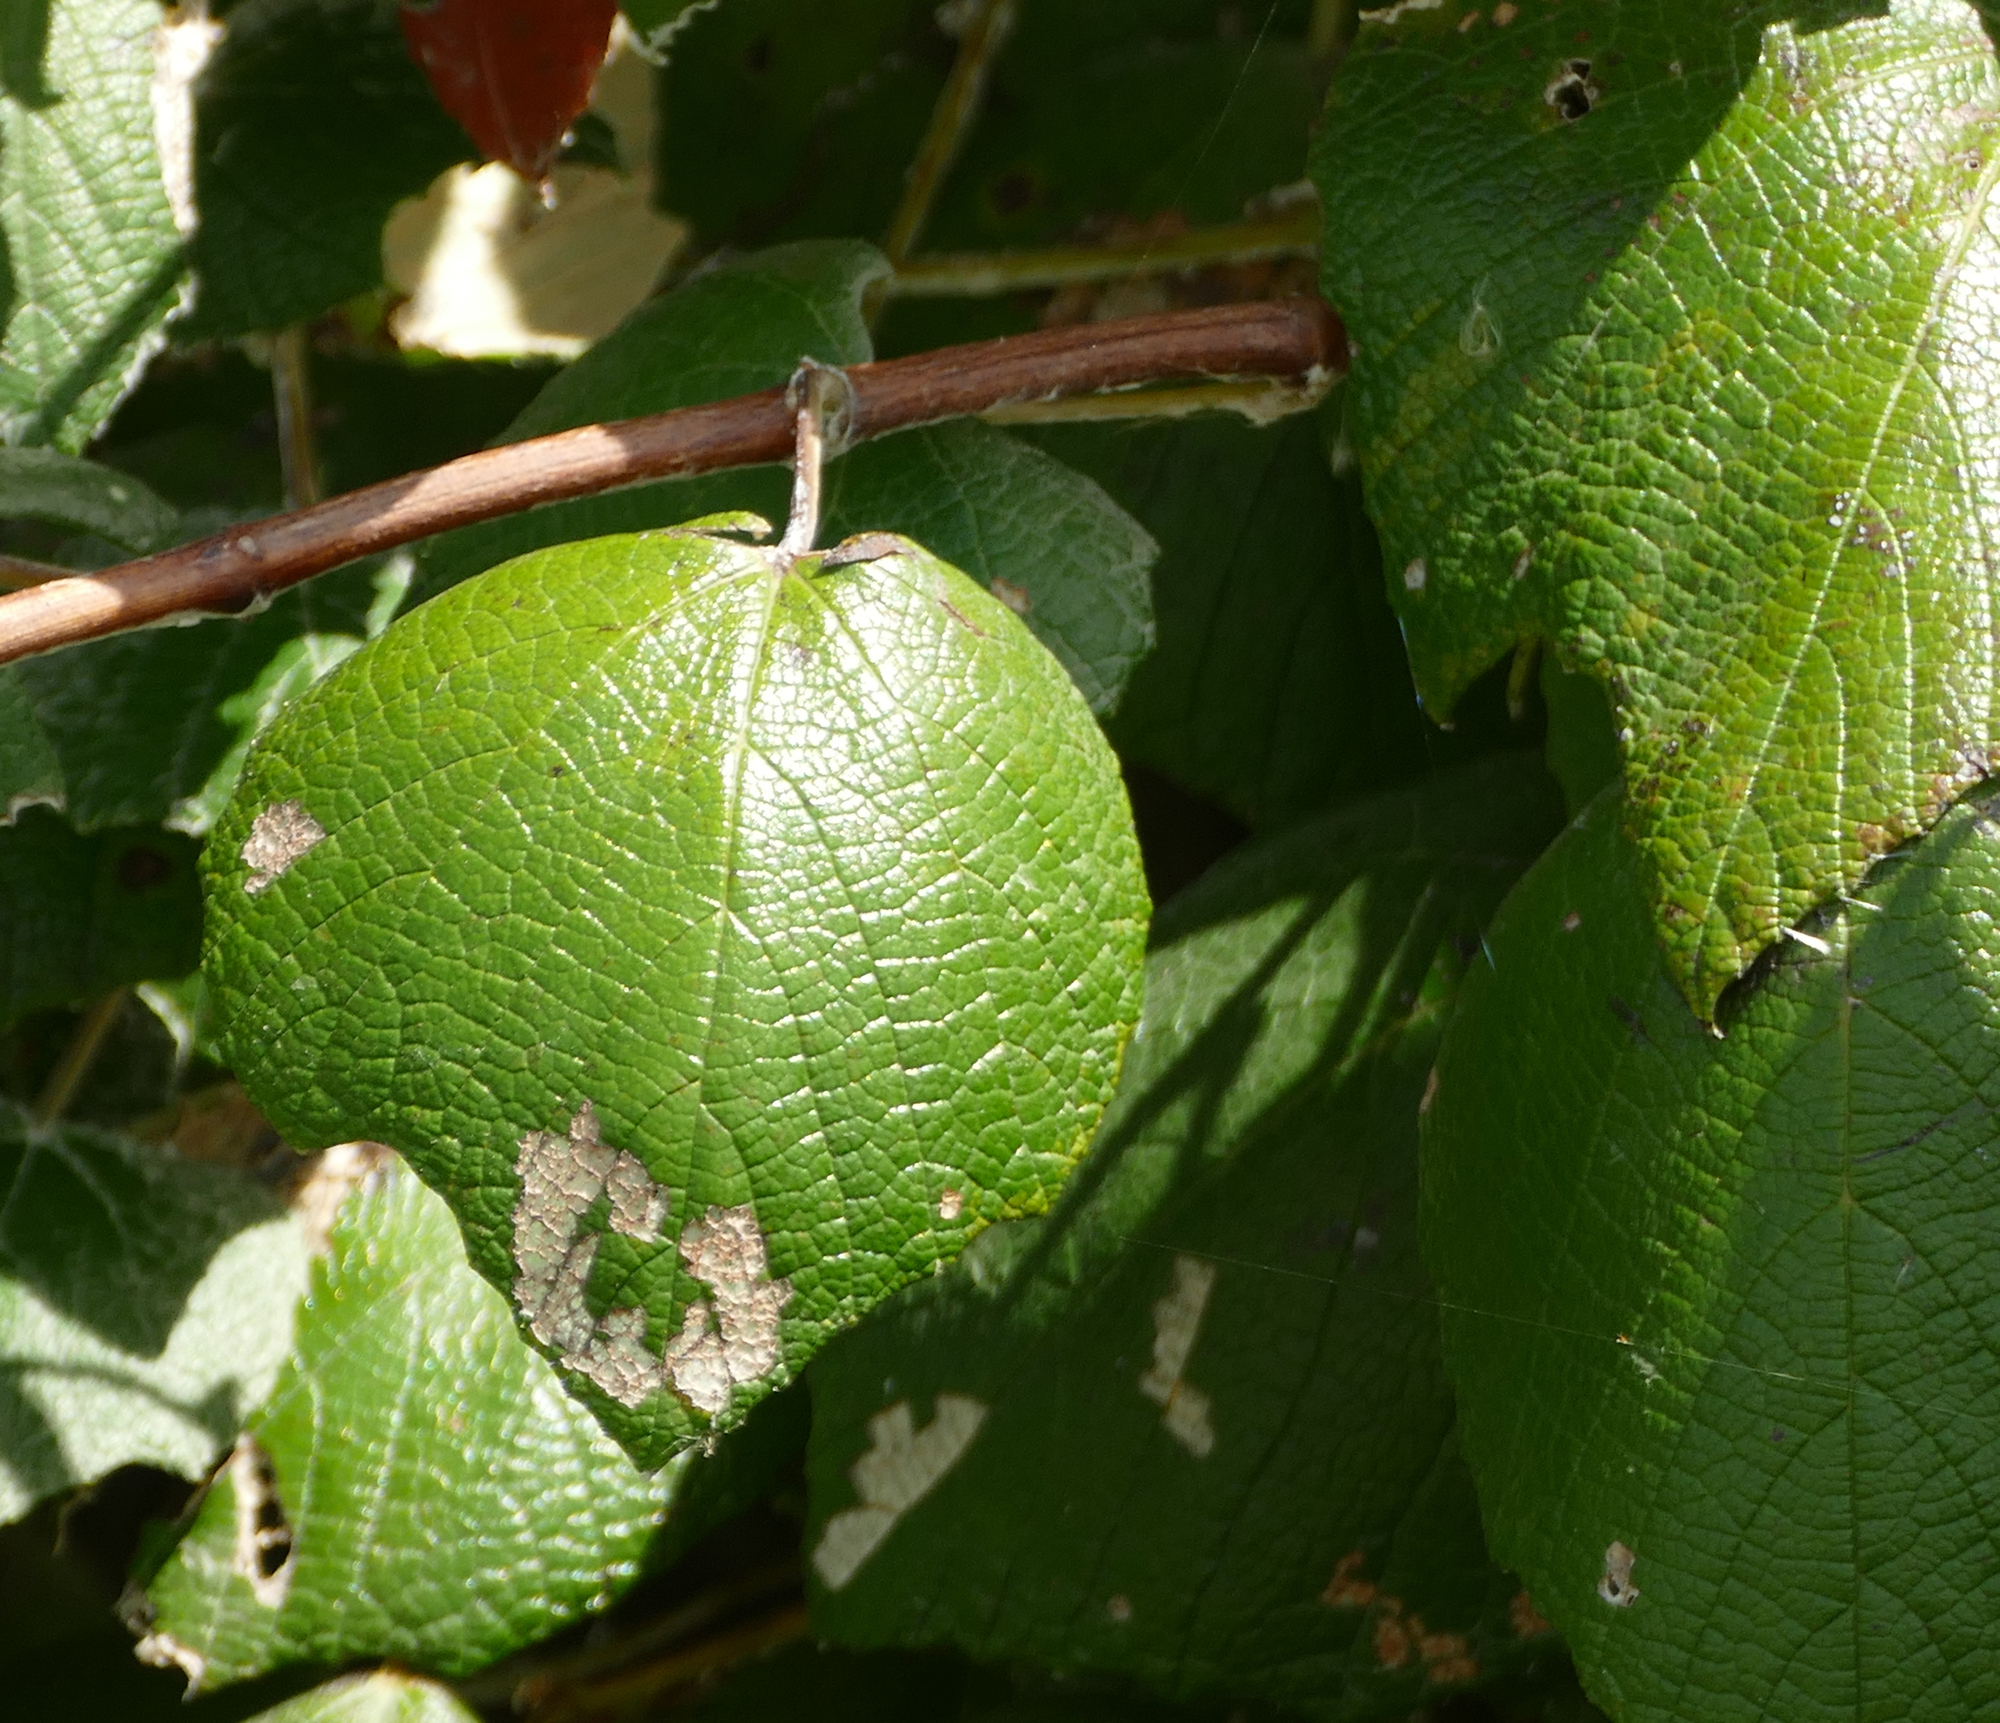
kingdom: Plantae
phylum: Tracheophyta
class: Magnoliopsida
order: Vitales
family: Vitaceae
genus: Vitis
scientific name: Vitis mustangensis
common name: Mustang grape
